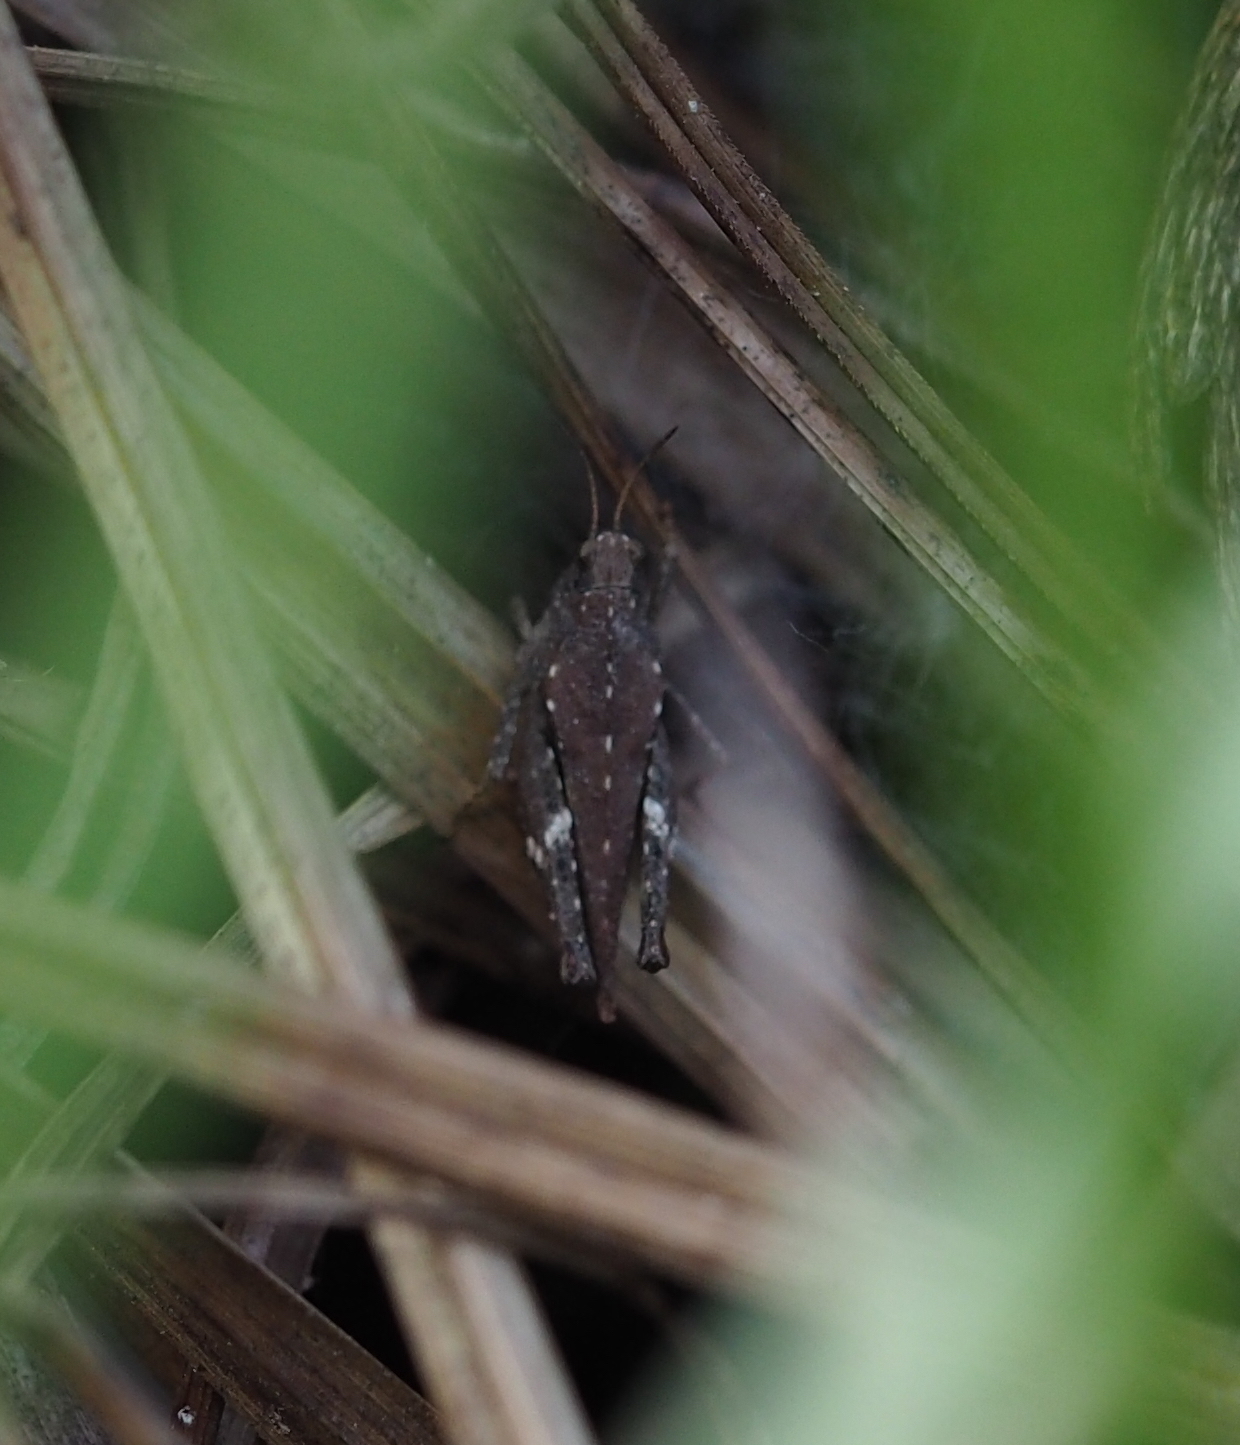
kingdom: Animalia
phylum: Arthropoda
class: Insecta
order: Orthoptera
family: Tetrigidae
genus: Tetrix
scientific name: Tetrix subulata
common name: Slender ground-hopper
